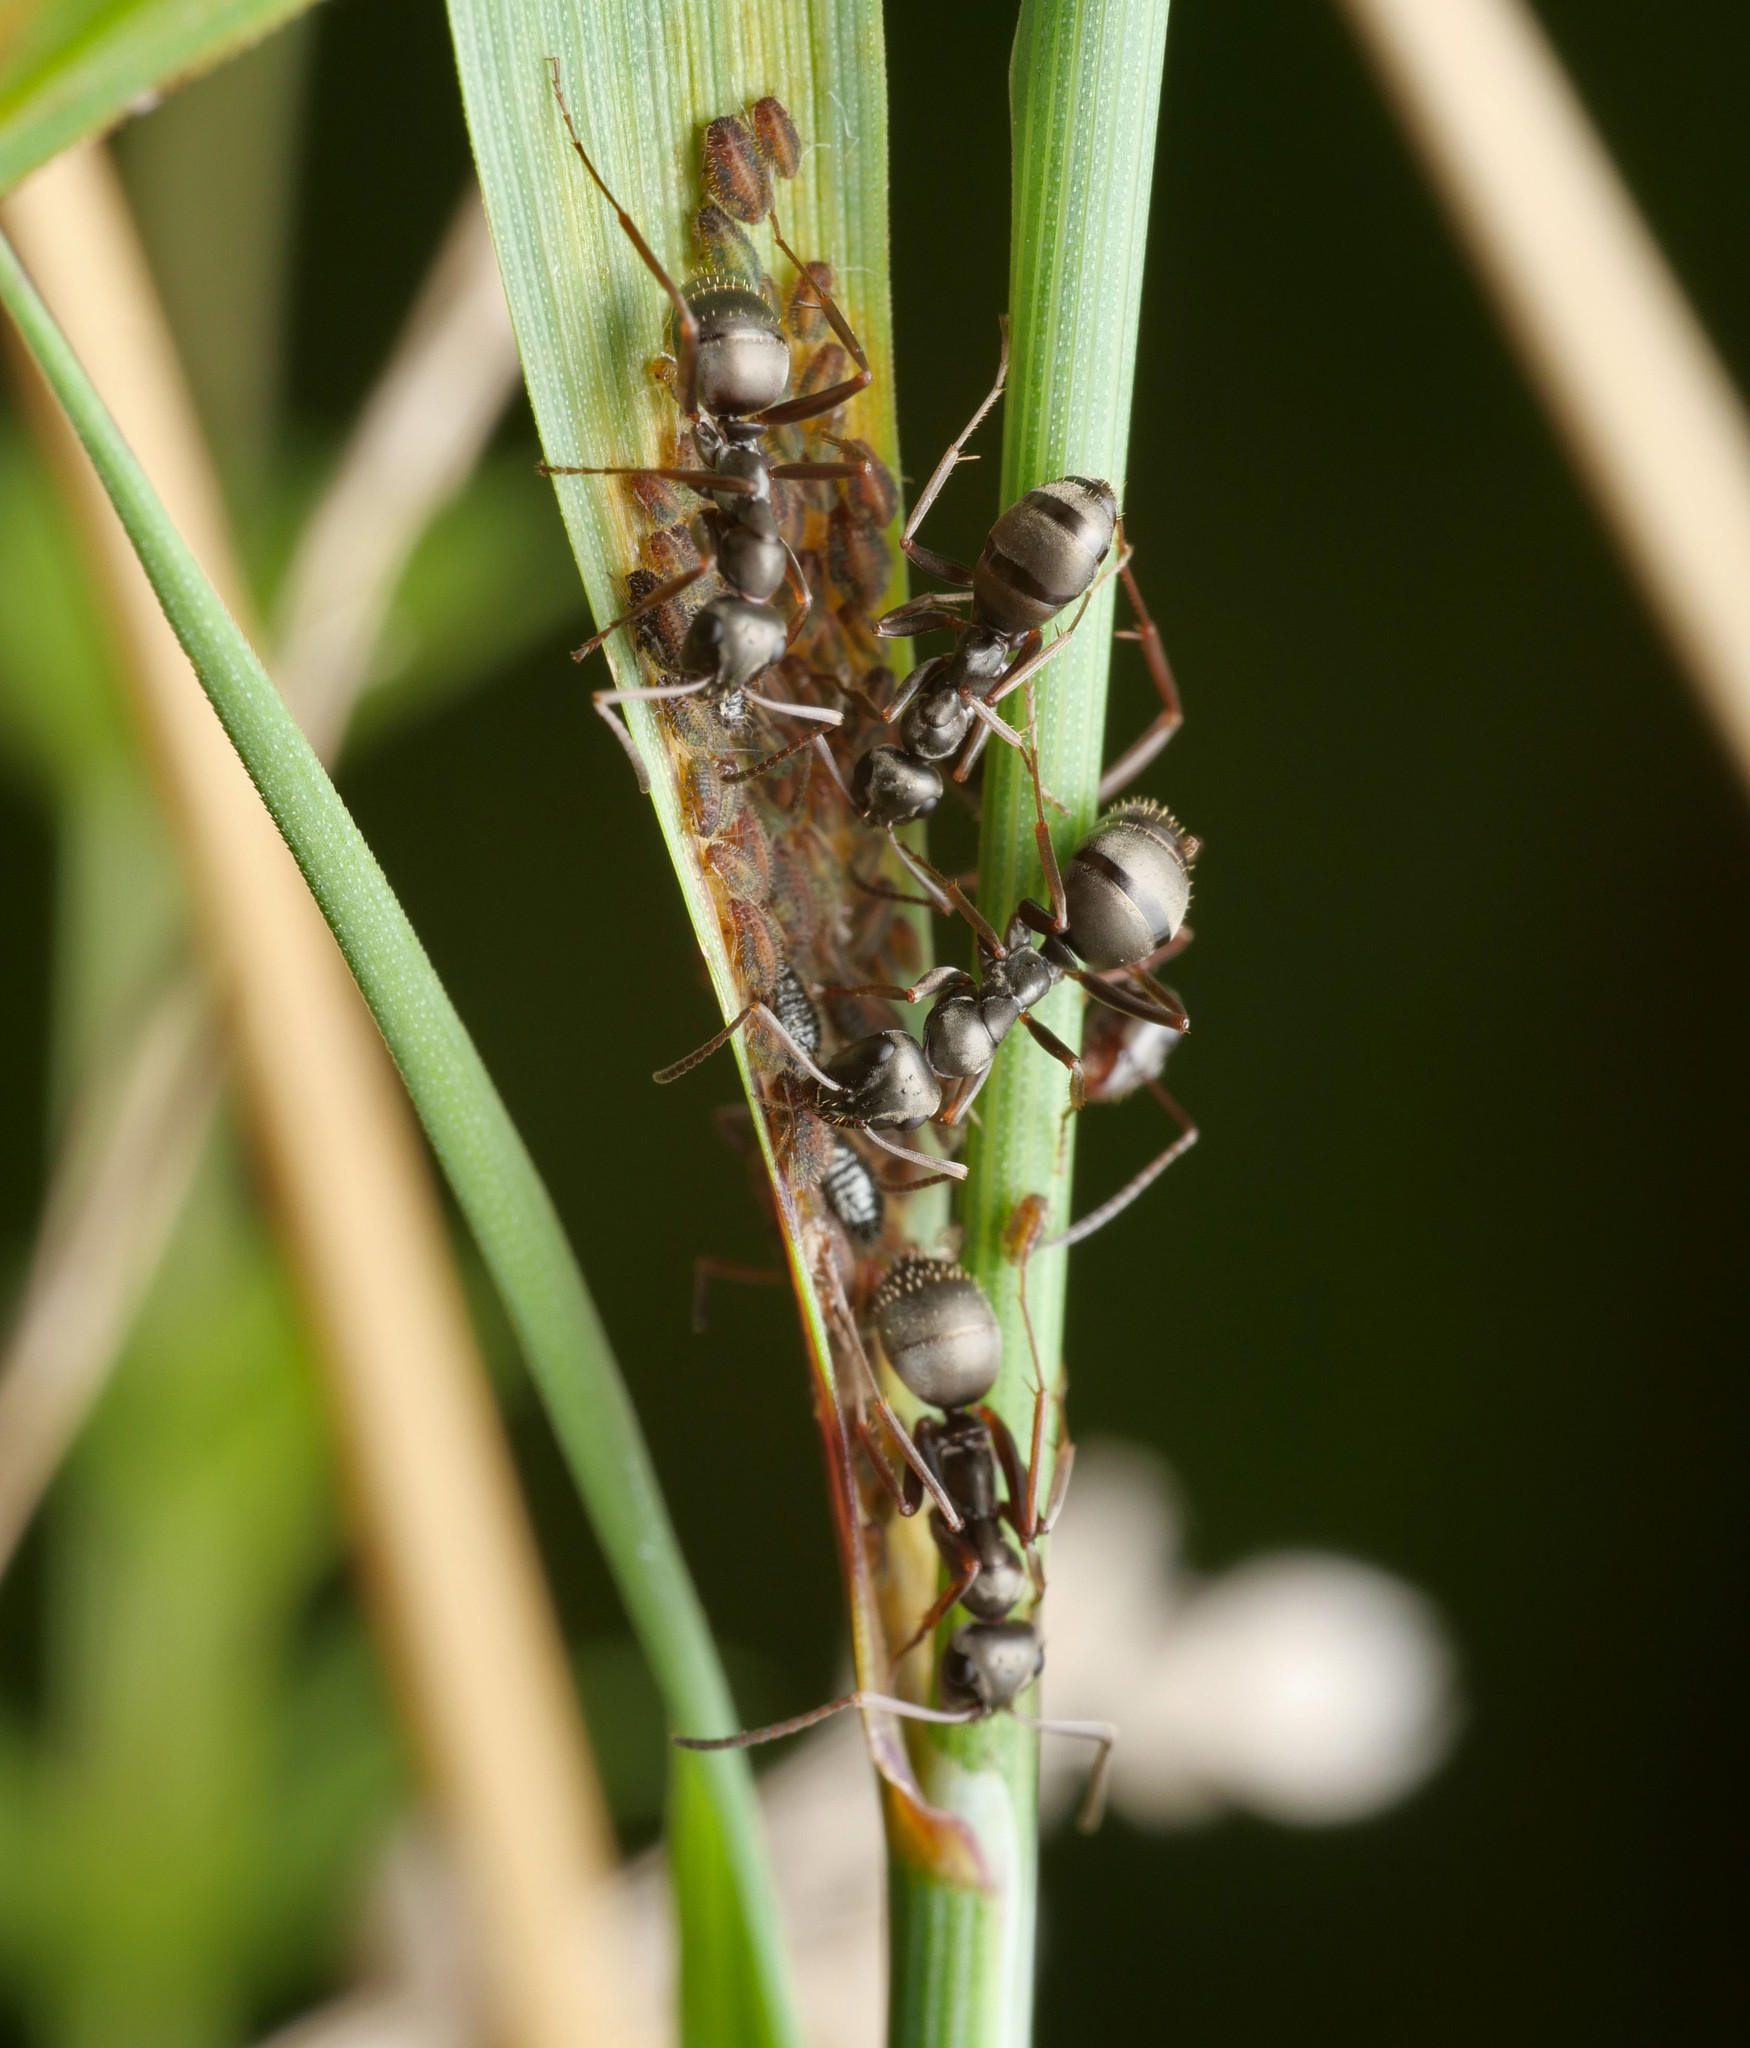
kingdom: Animalia
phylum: Arthropoda
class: Insecta
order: Hymenoptera
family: Formicidae
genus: Formica
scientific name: Formica fusca
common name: Silky ant
